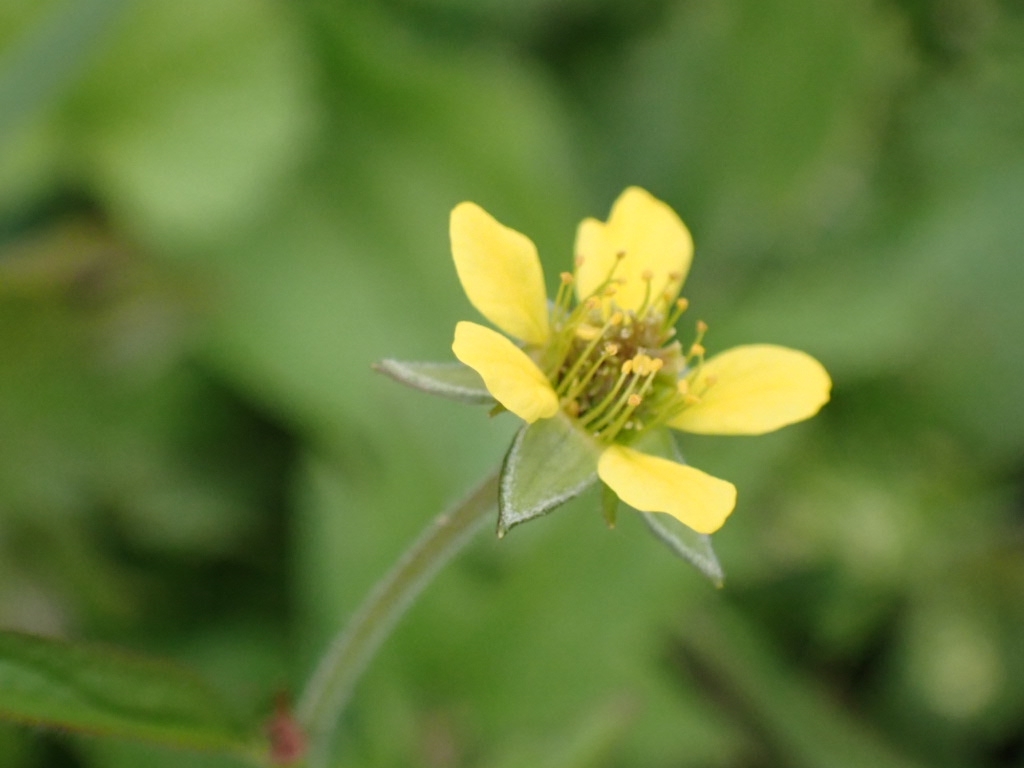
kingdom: Plantae
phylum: Tracheophyta
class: Magnoliopsida
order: Rosales
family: Rosaceae
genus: Geum
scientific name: Geum urbanum
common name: Wood avens
